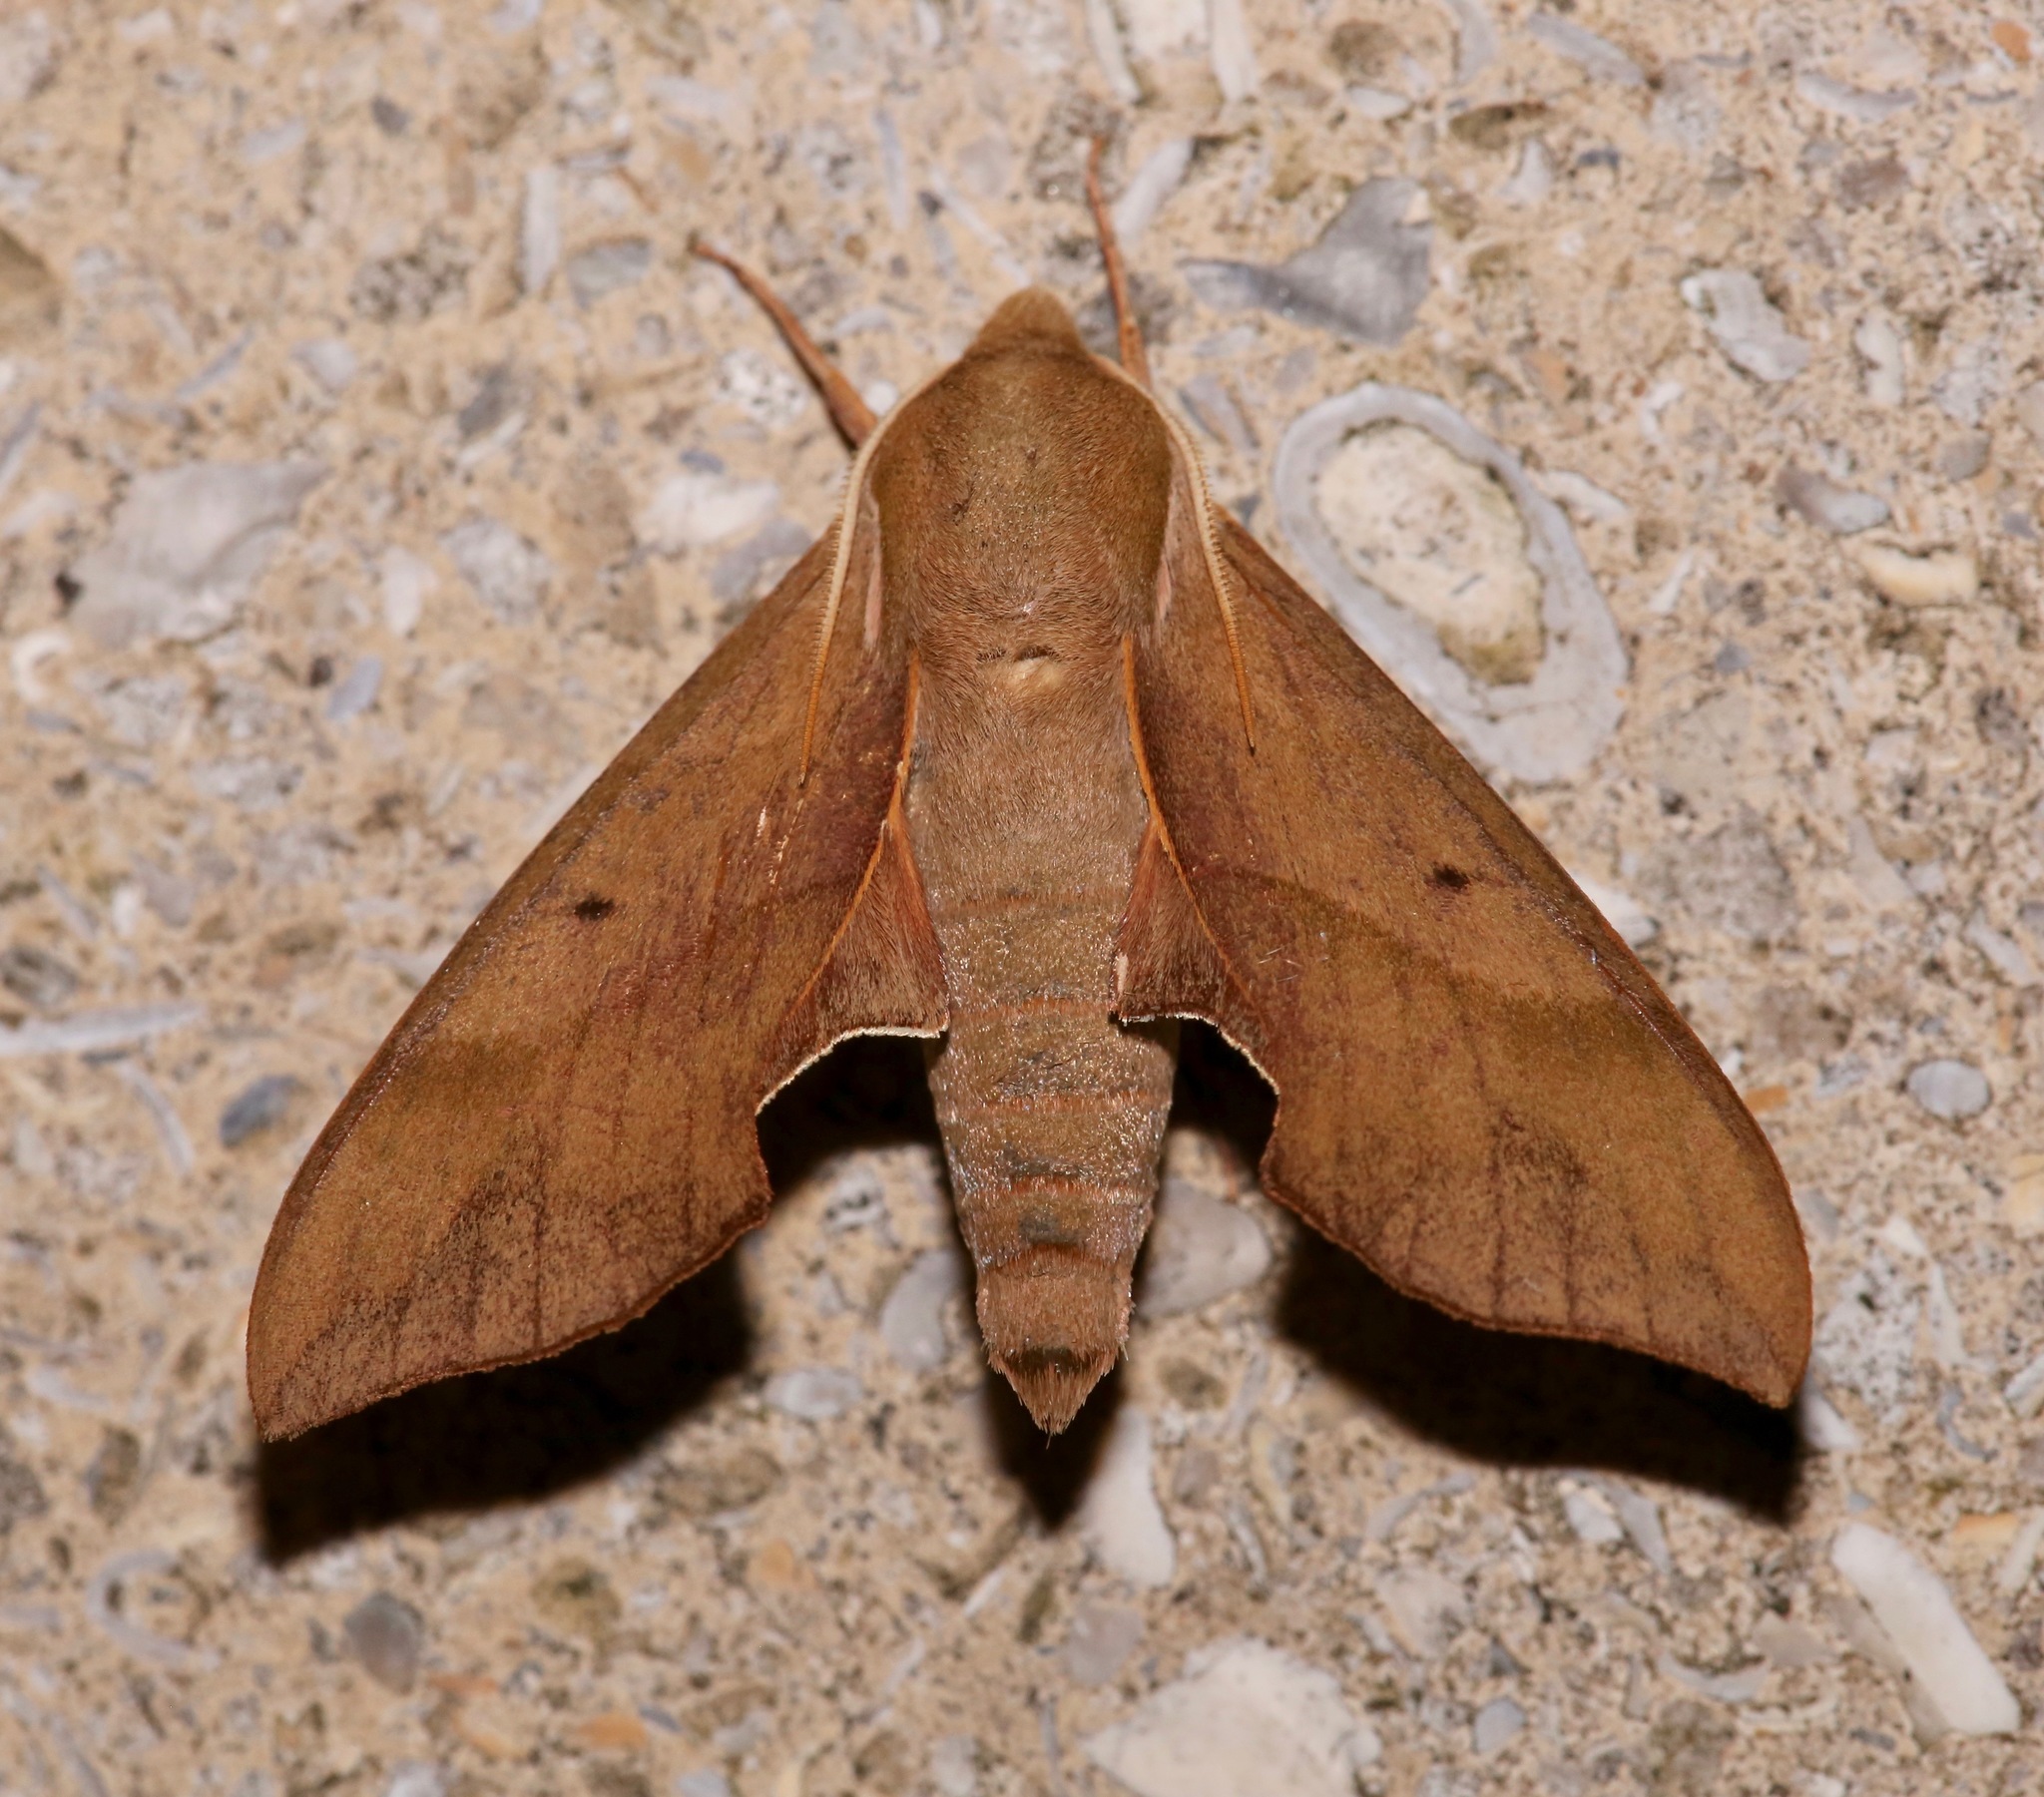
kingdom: Animalia
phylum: Arthropoda
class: Insecta
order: Lepidoptera
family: Sphingidae
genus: Darapsa
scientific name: Darapsa myron
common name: Hog sphinx
